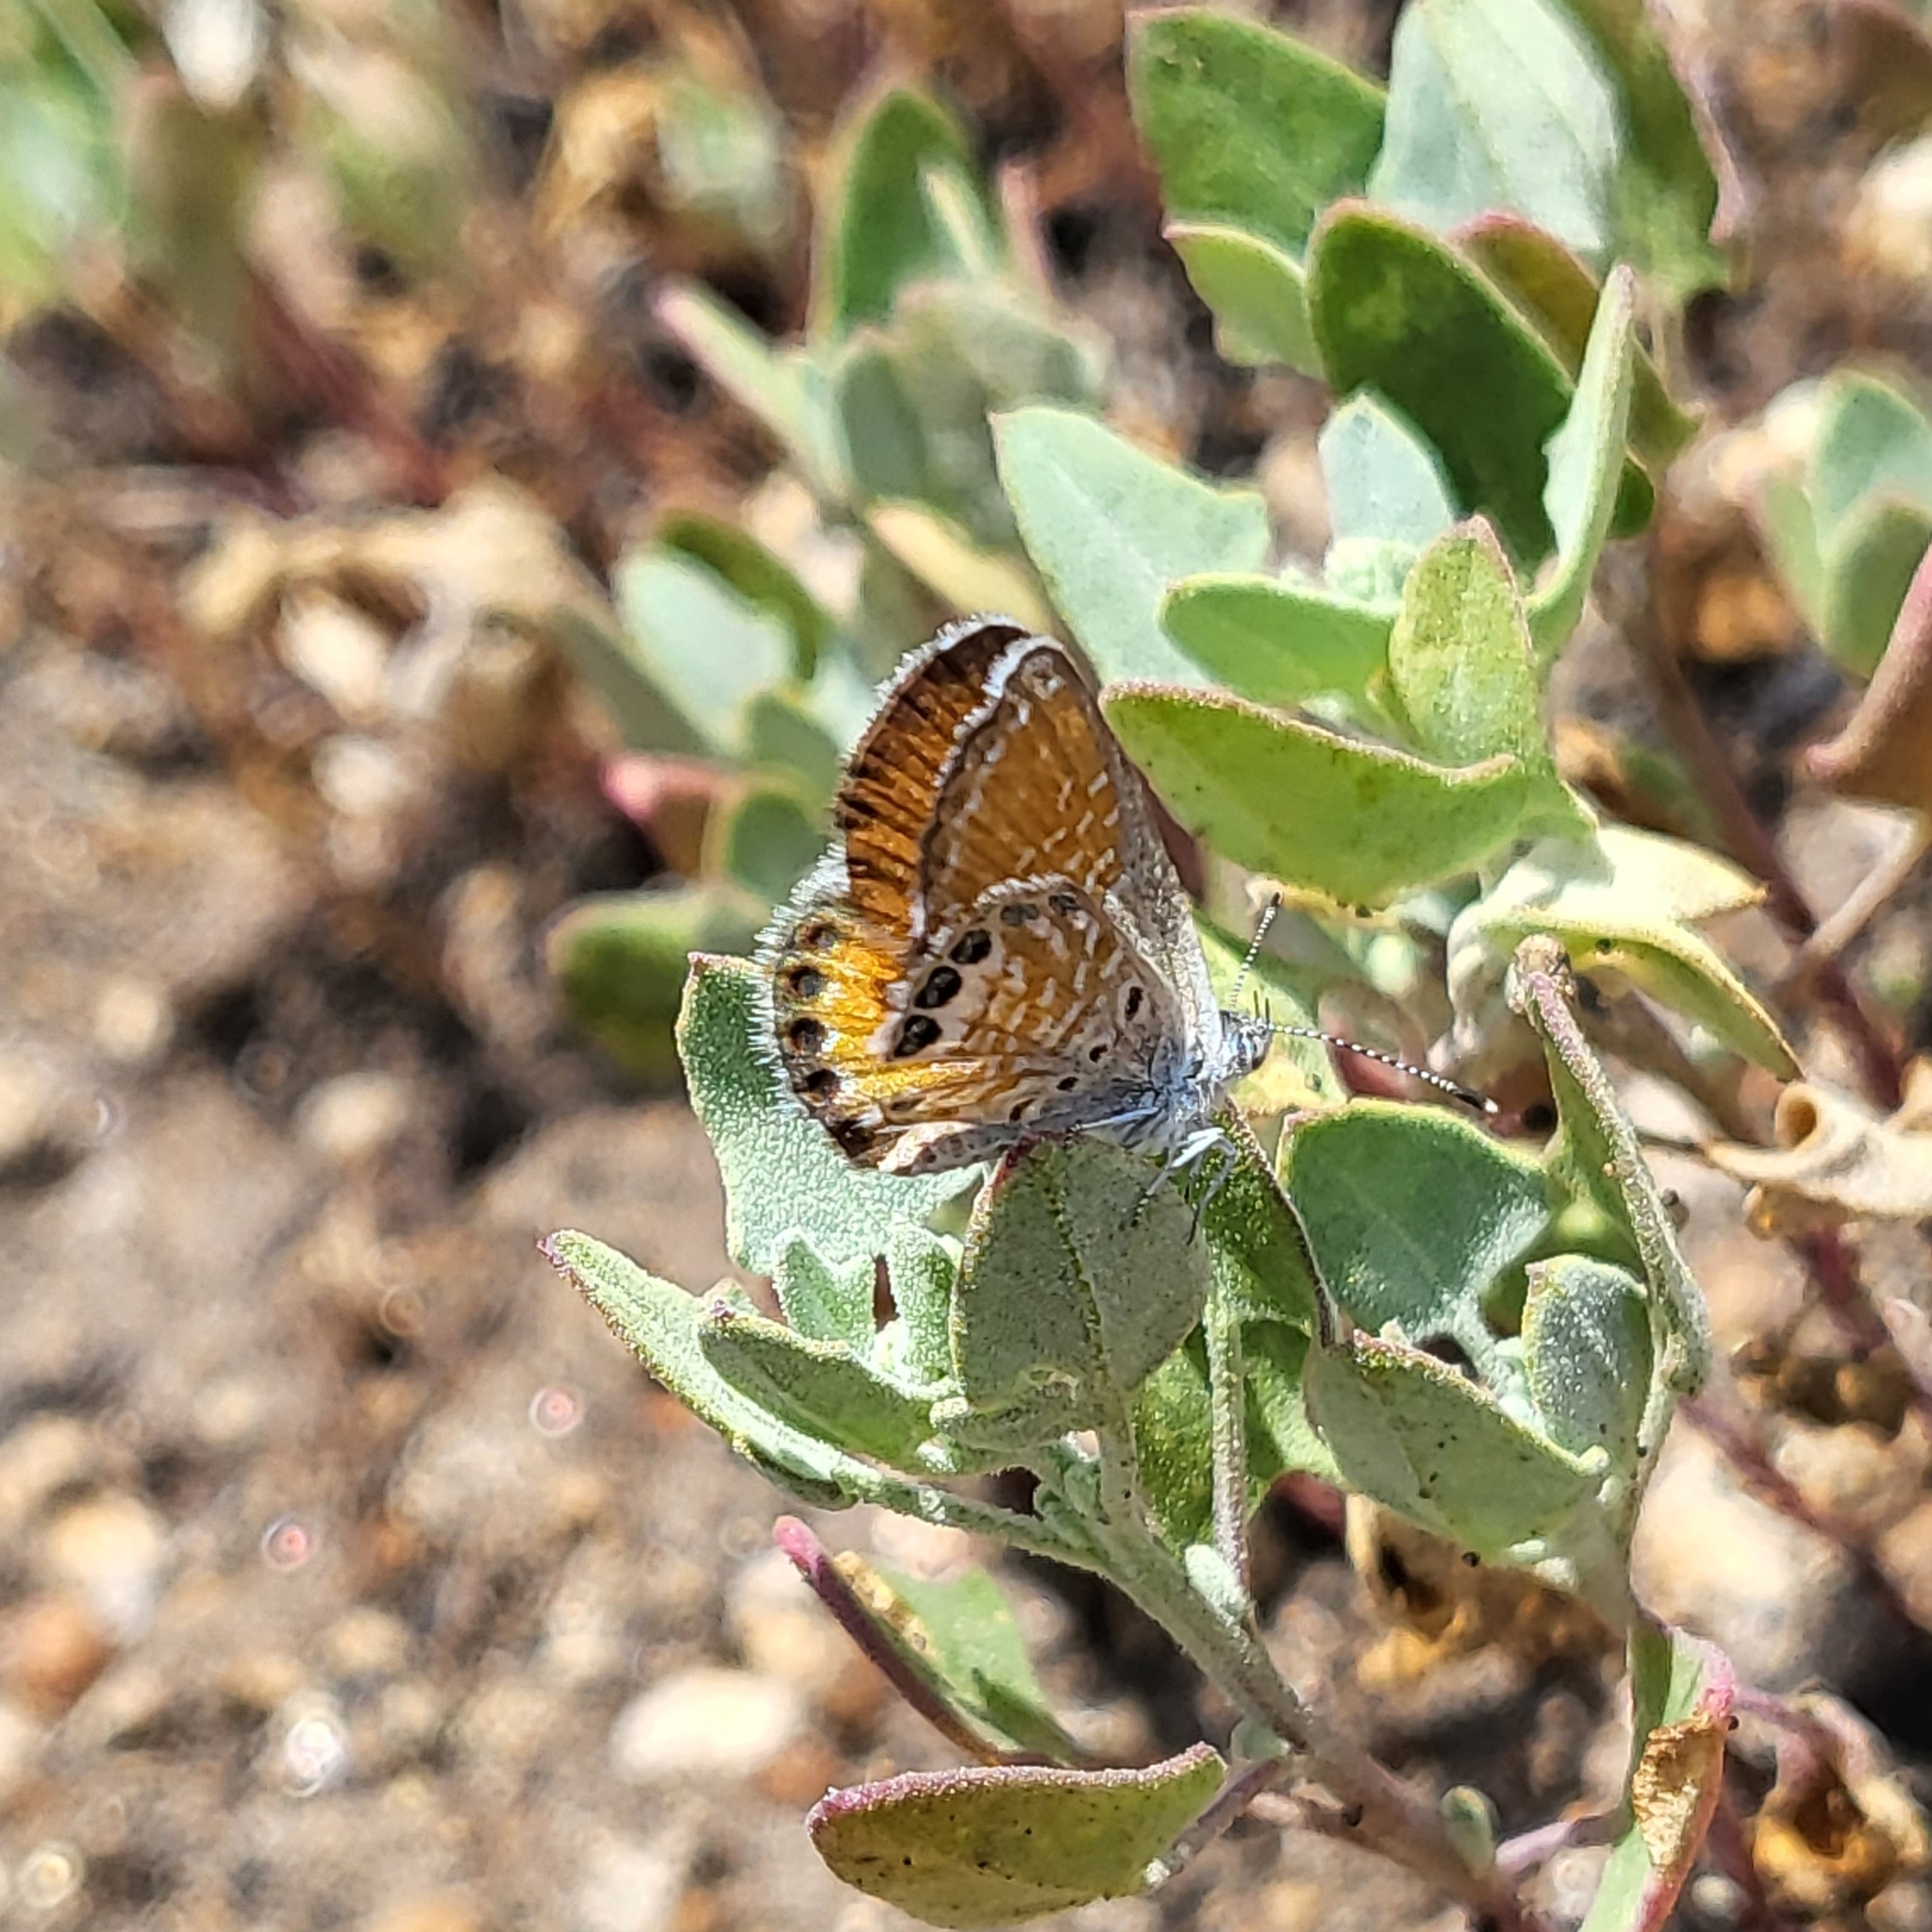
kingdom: Animalia
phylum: Arthropoda
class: Insecta
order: Lepidoptera
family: Lycaenidae
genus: Brephidium
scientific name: Brephidium exilis
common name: Pygmy blue
